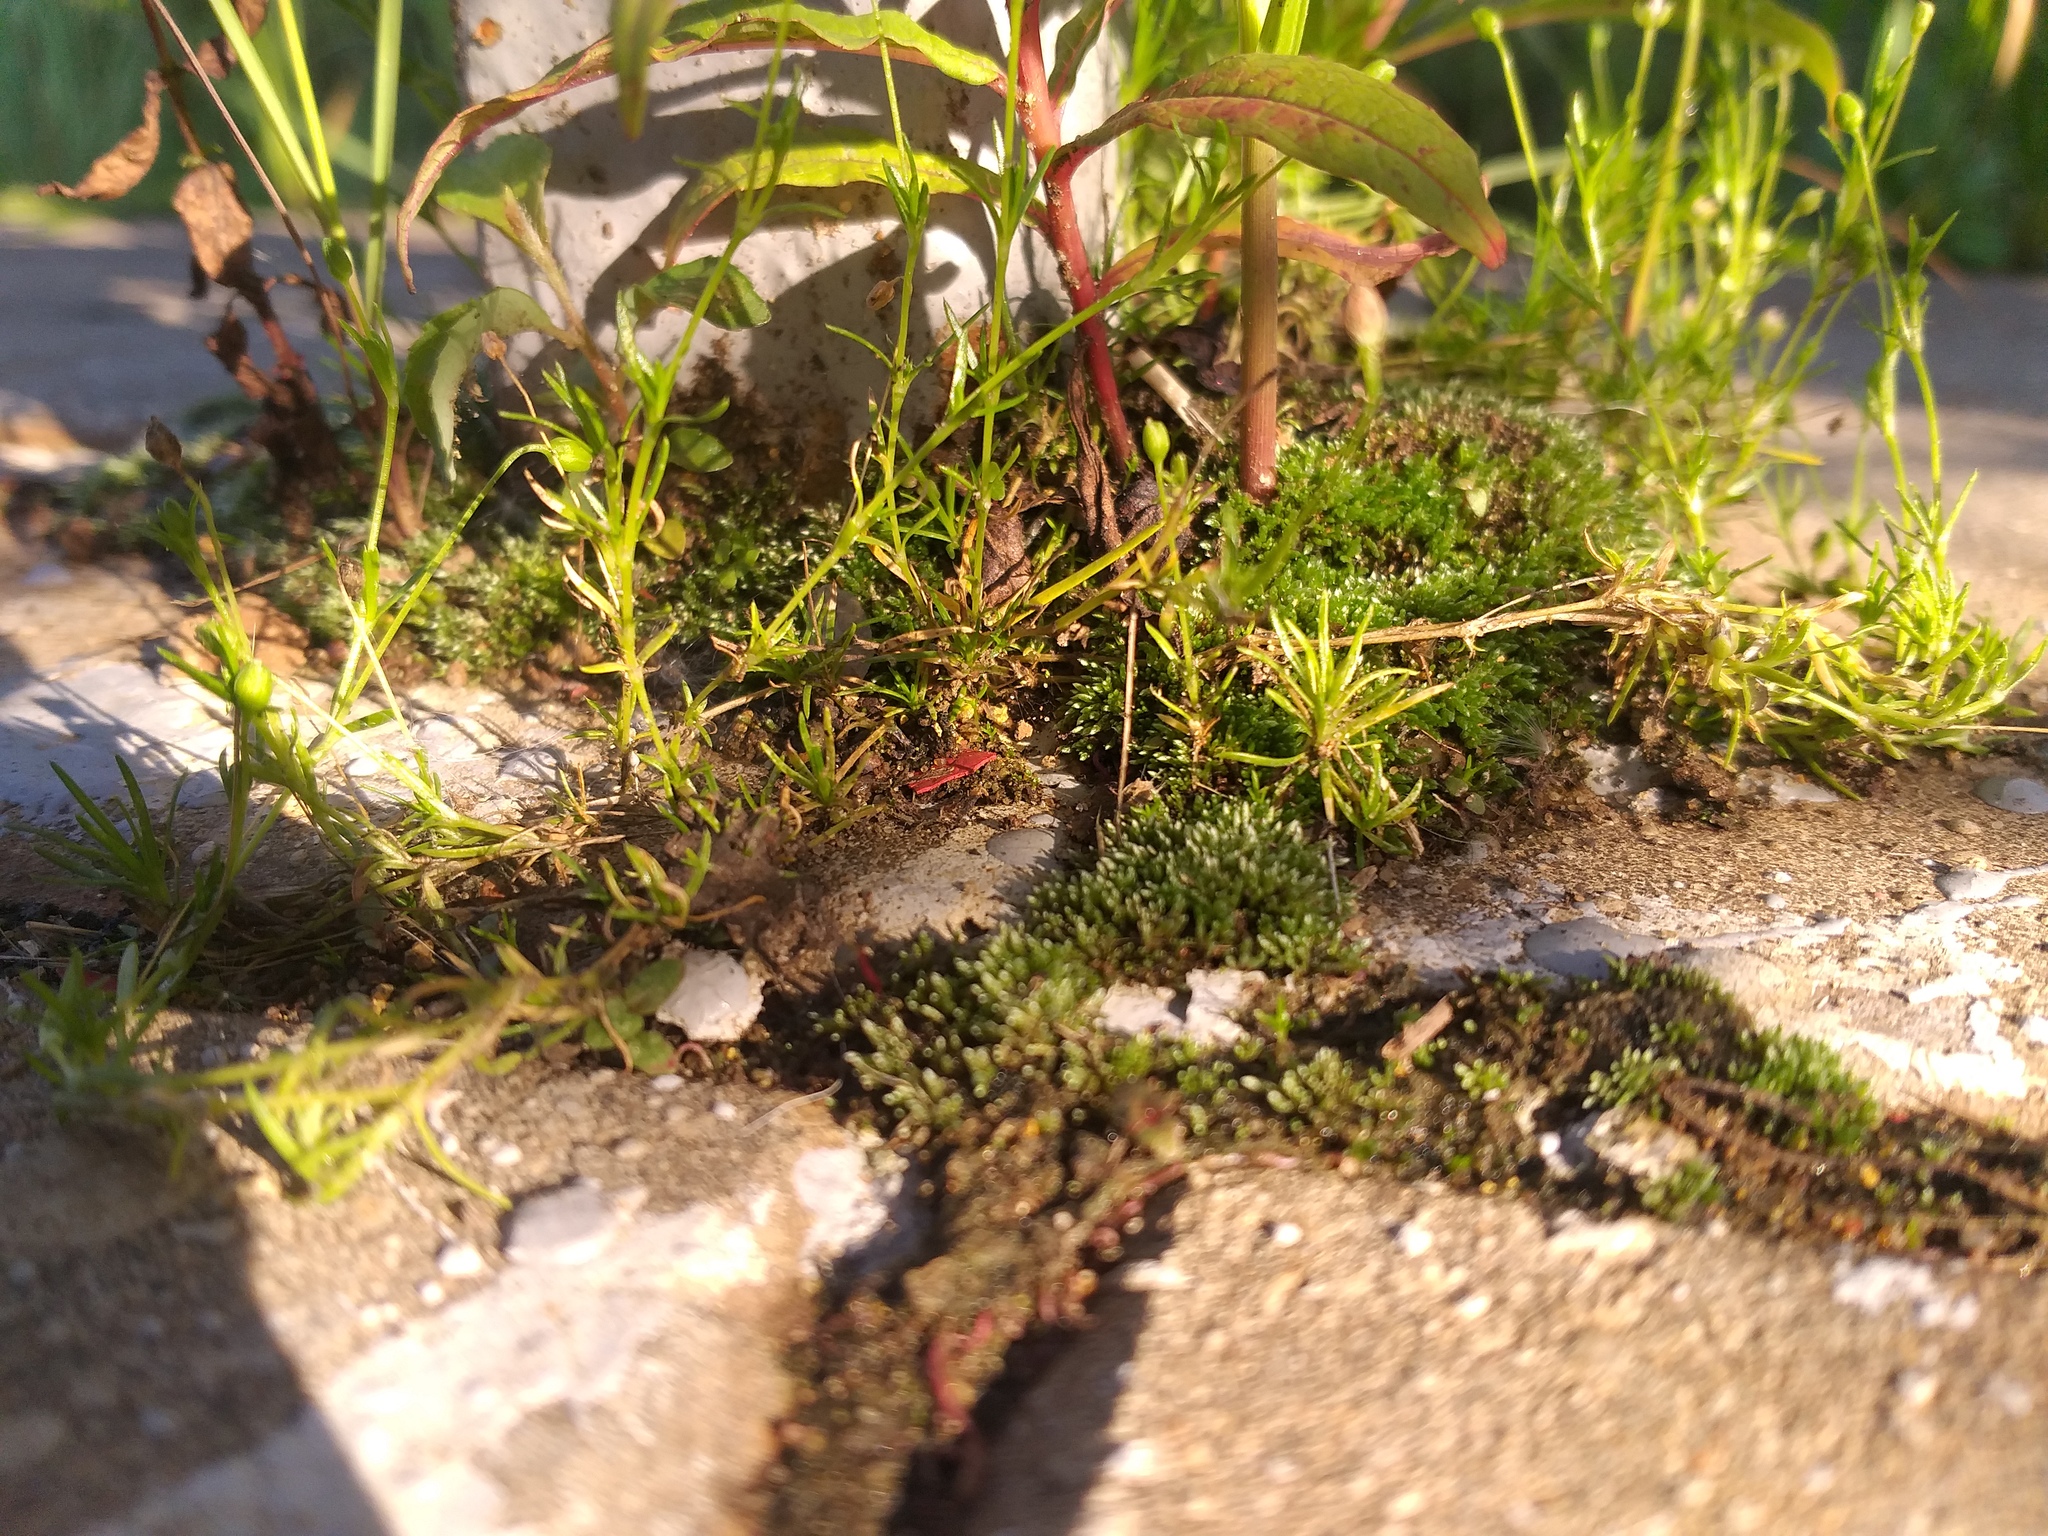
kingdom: Plantae
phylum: Tracheophyta
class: Magnoliopsida
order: Caryophyllales
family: Caryophyllaceae
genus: Sagina
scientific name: Sagina procumbens
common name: Procumbent pearlwort
